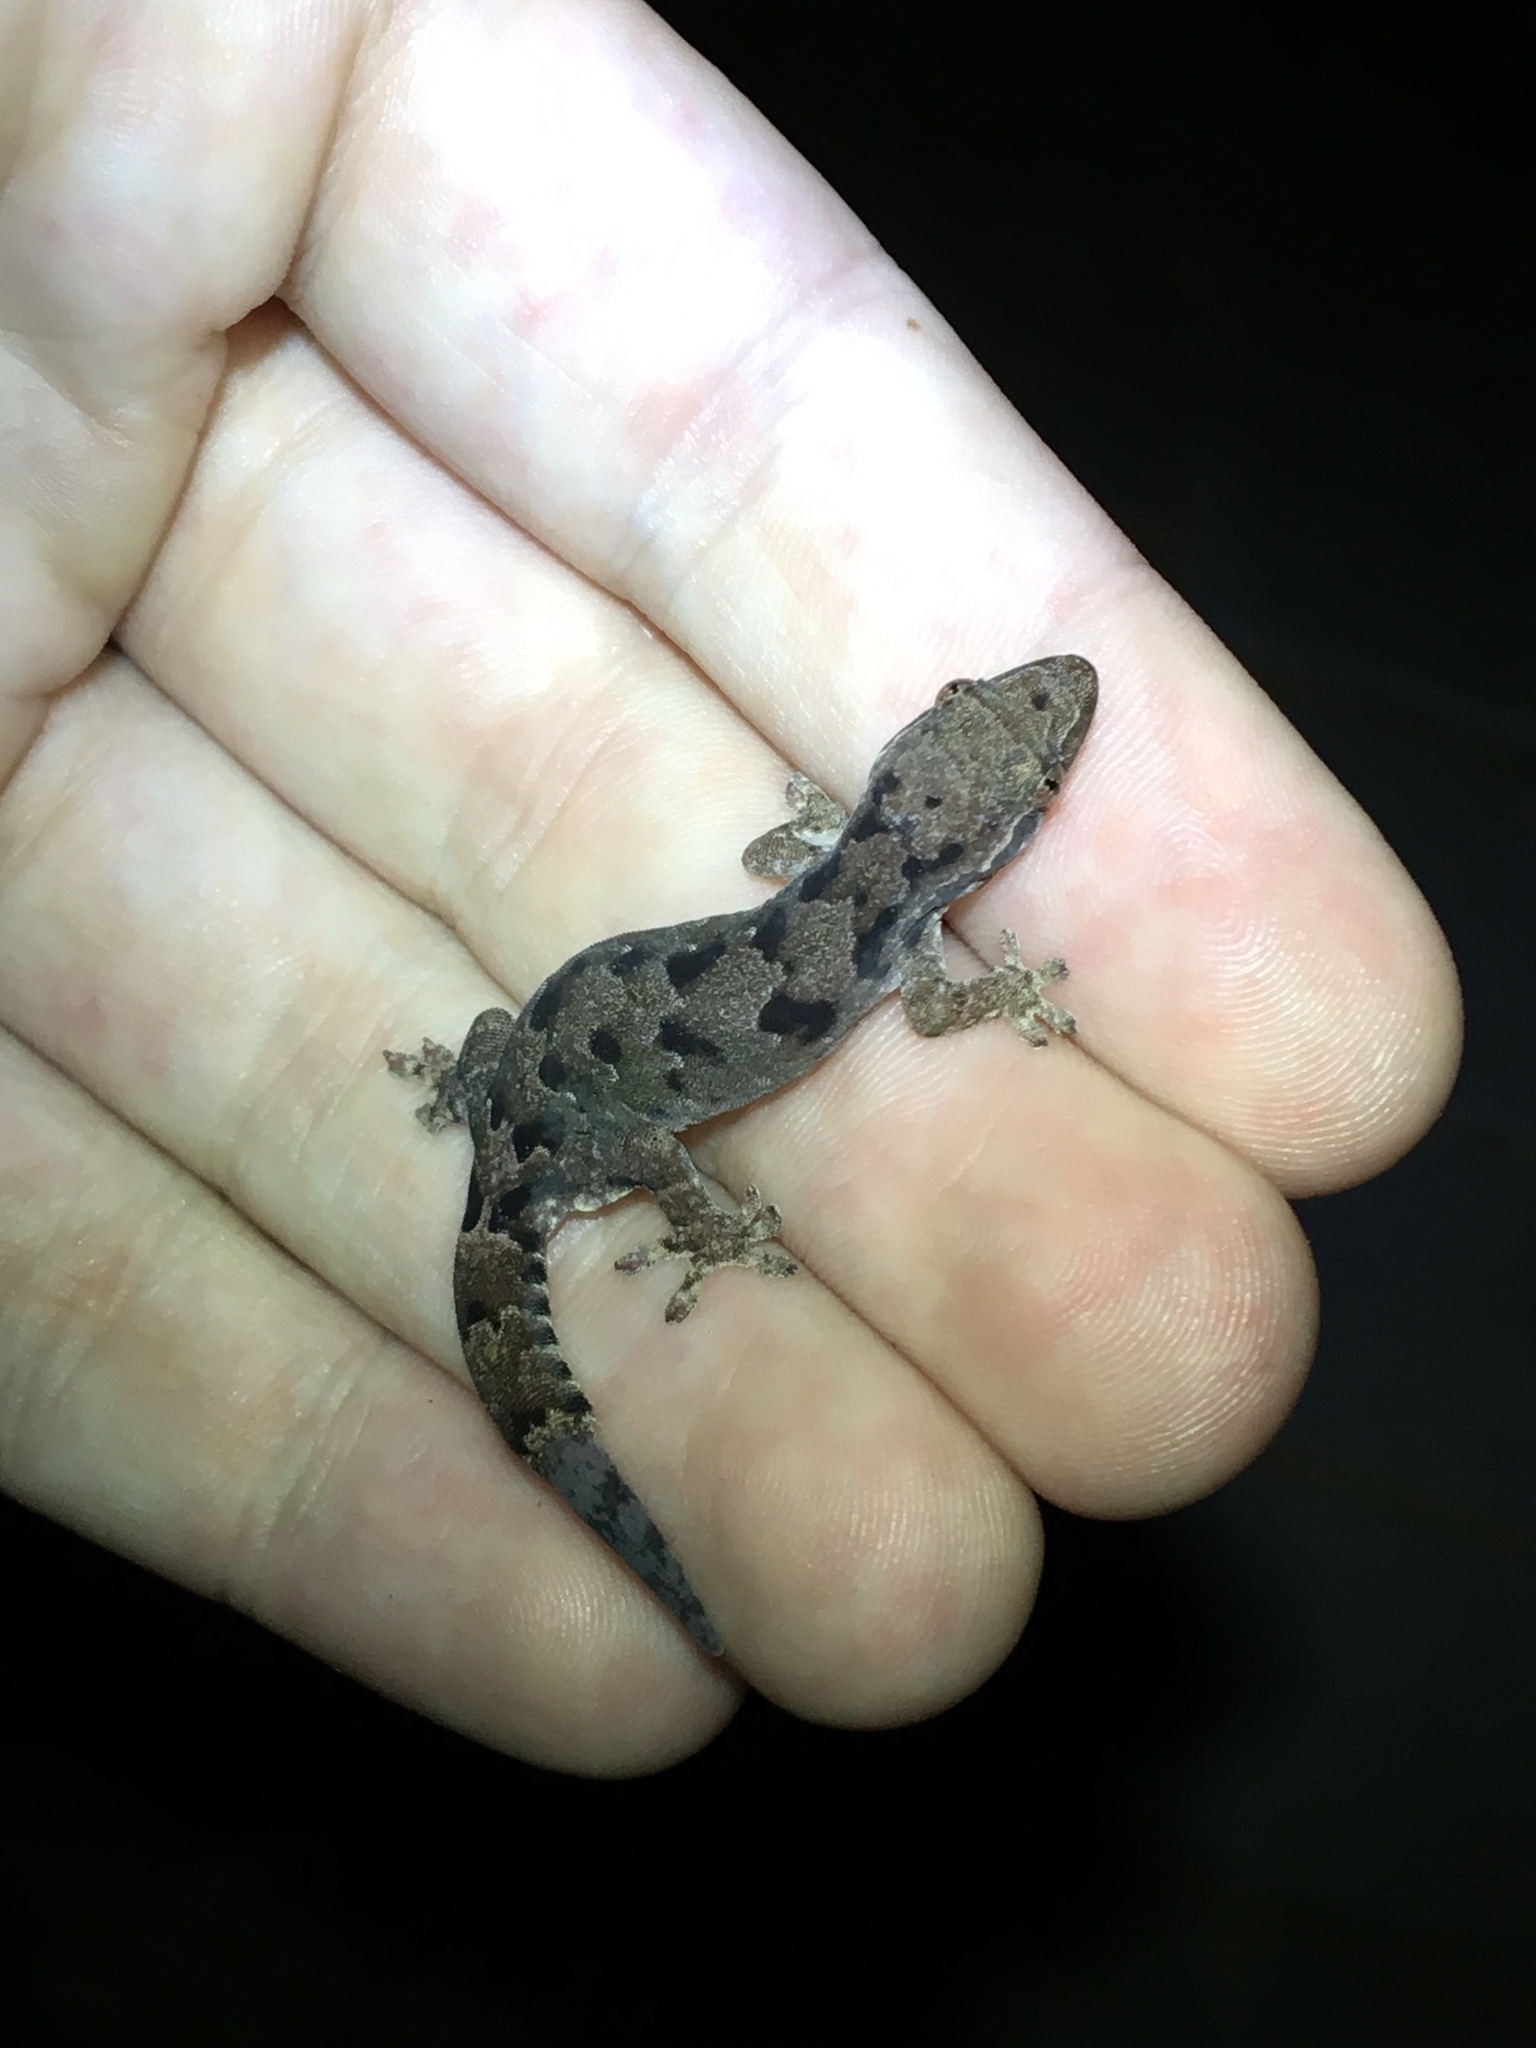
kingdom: Animalia
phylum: Chordata
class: Squamata
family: Gekkonidae
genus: Lepidodactylus
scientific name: Lepidodactylus lugubris
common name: Mourning gecko
